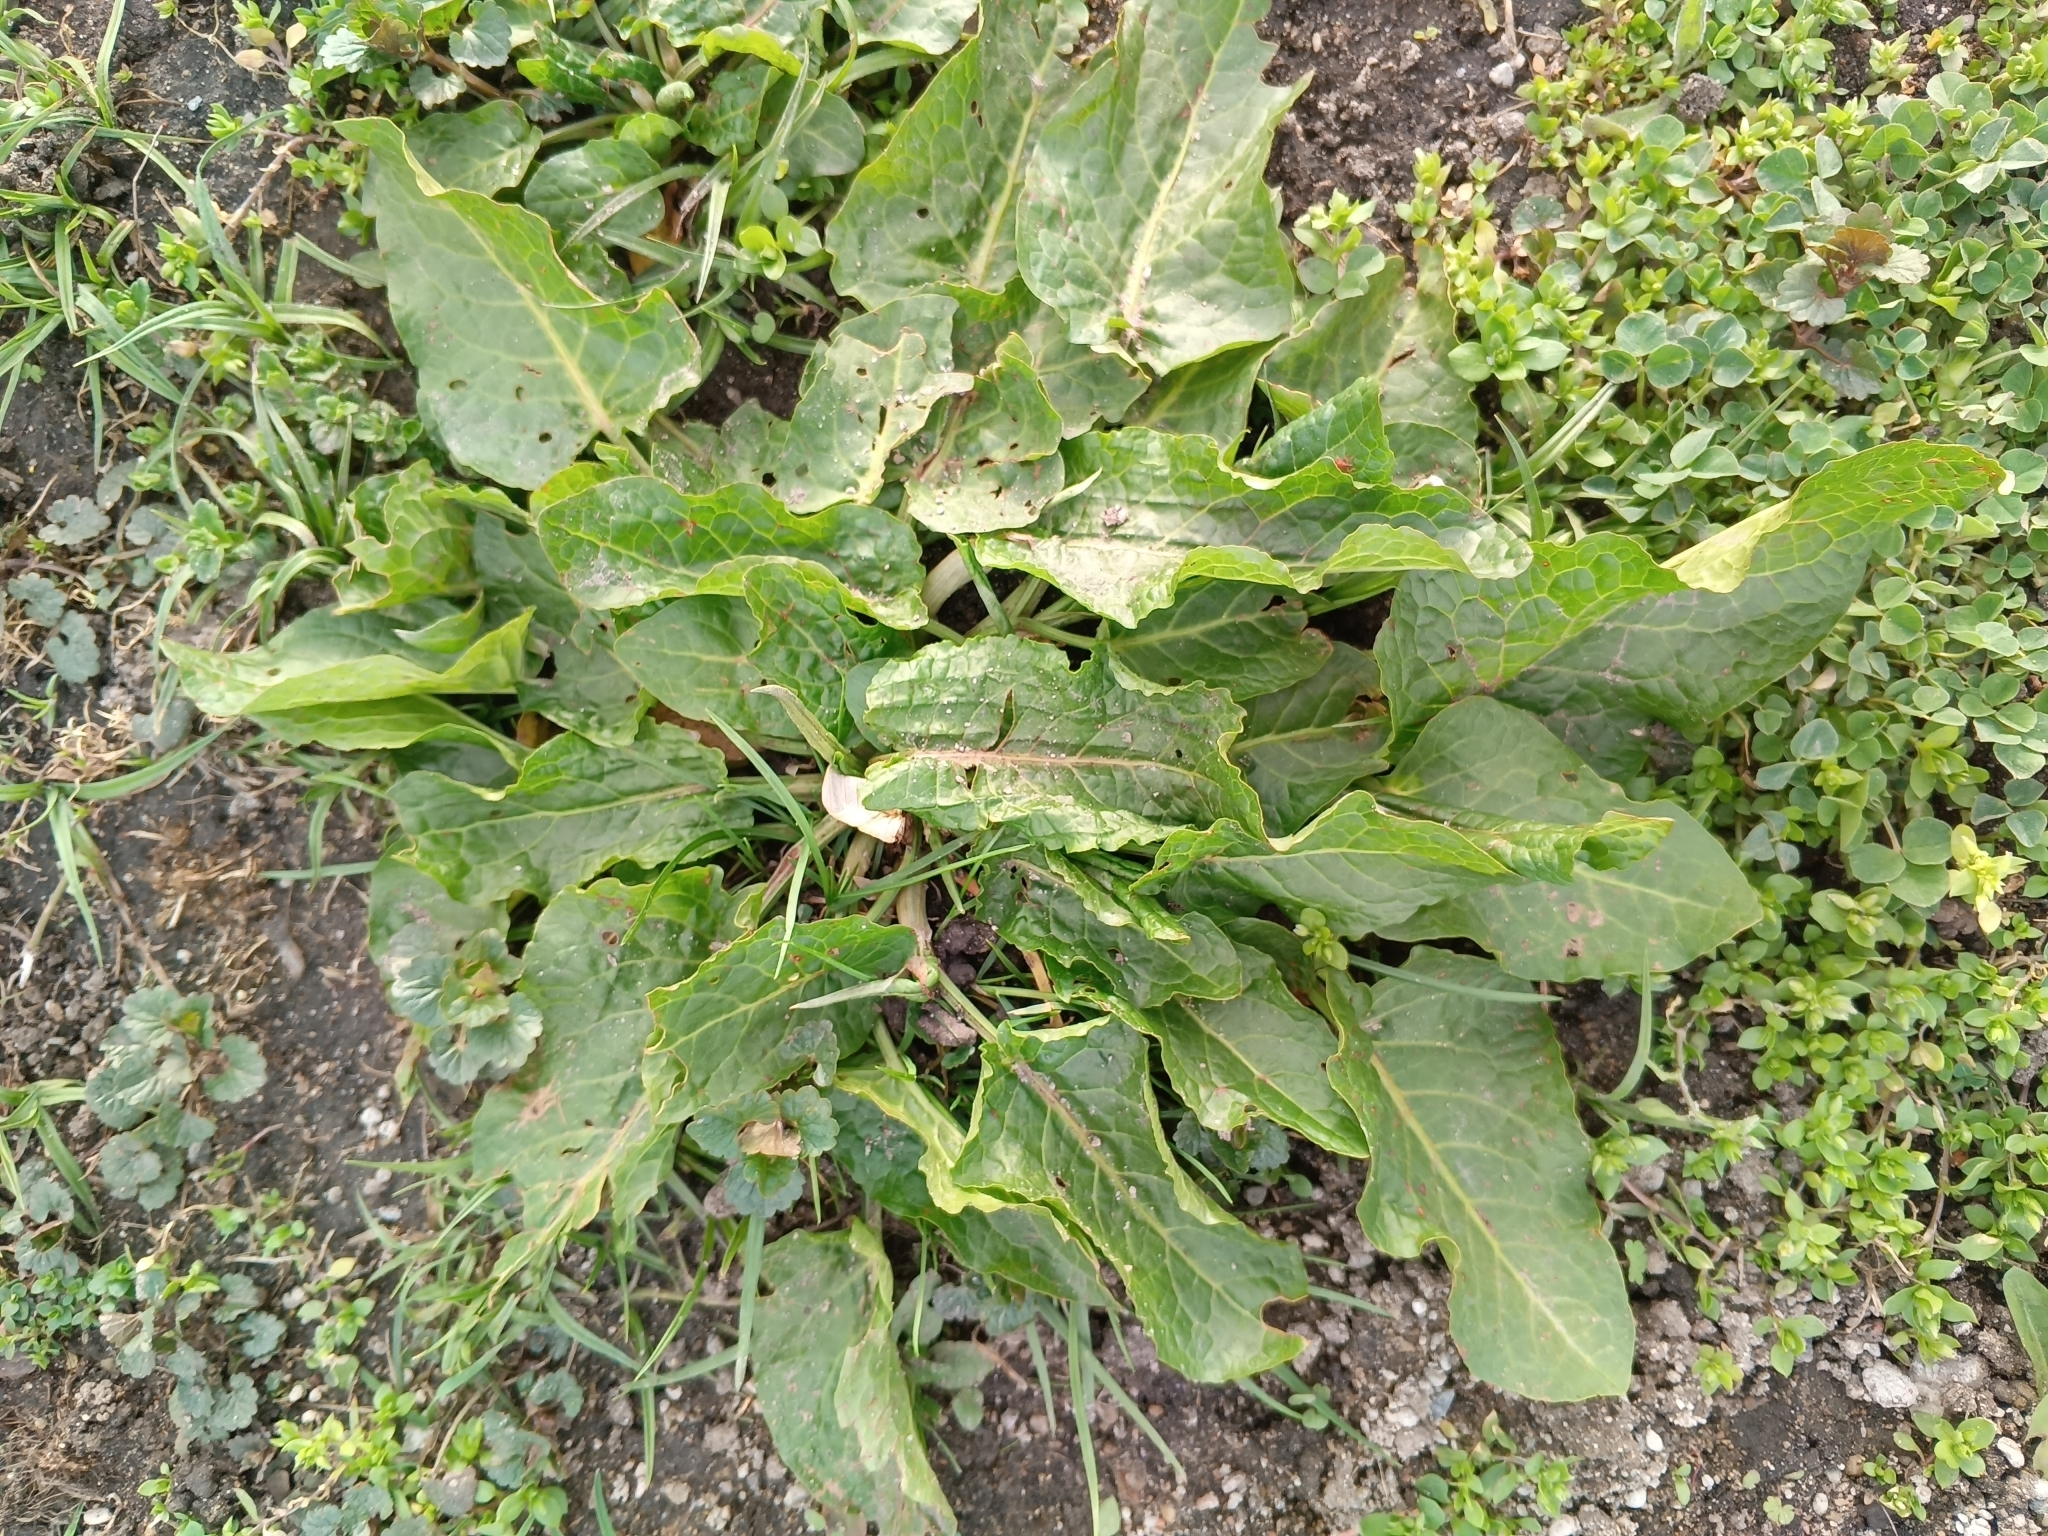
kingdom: Plantae
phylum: Tracheophyta
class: Magnoliopsida
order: Caryophyllales
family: Polygonaceae
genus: Rumex
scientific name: Rumex obtusifolius
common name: Bitter dock
